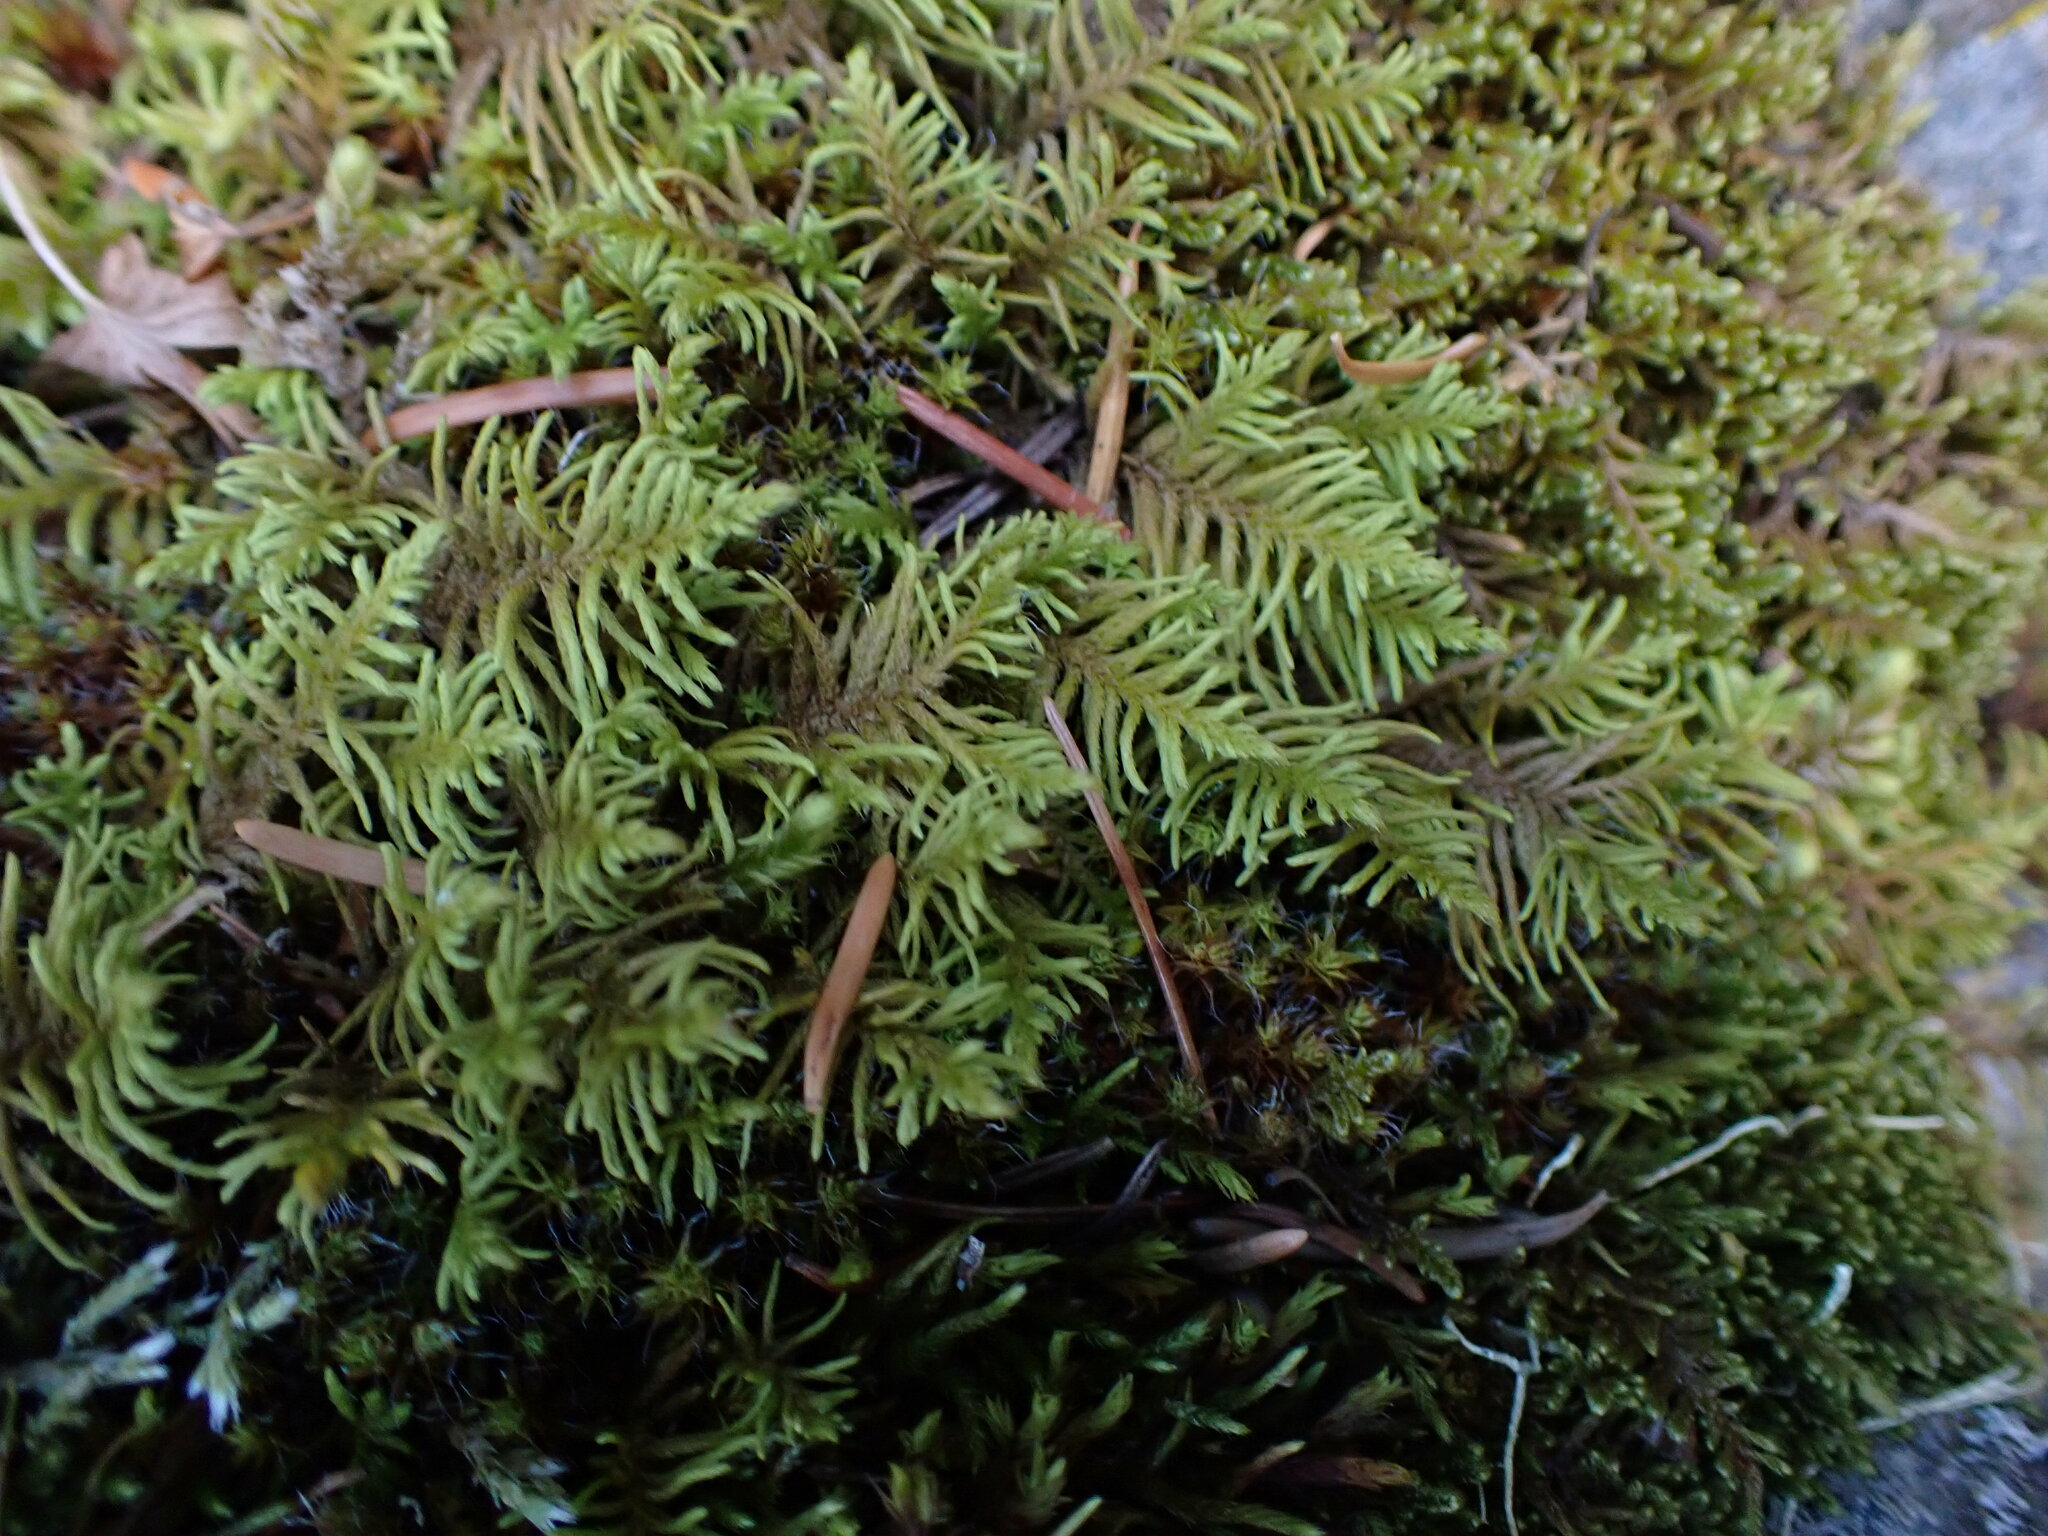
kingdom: Plantae
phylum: Bryophyta
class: Bryopsida
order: Hypnales
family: Thuidiaceae
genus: Abietinella
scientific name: Abietinella abietina
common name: Wiry fern moss
